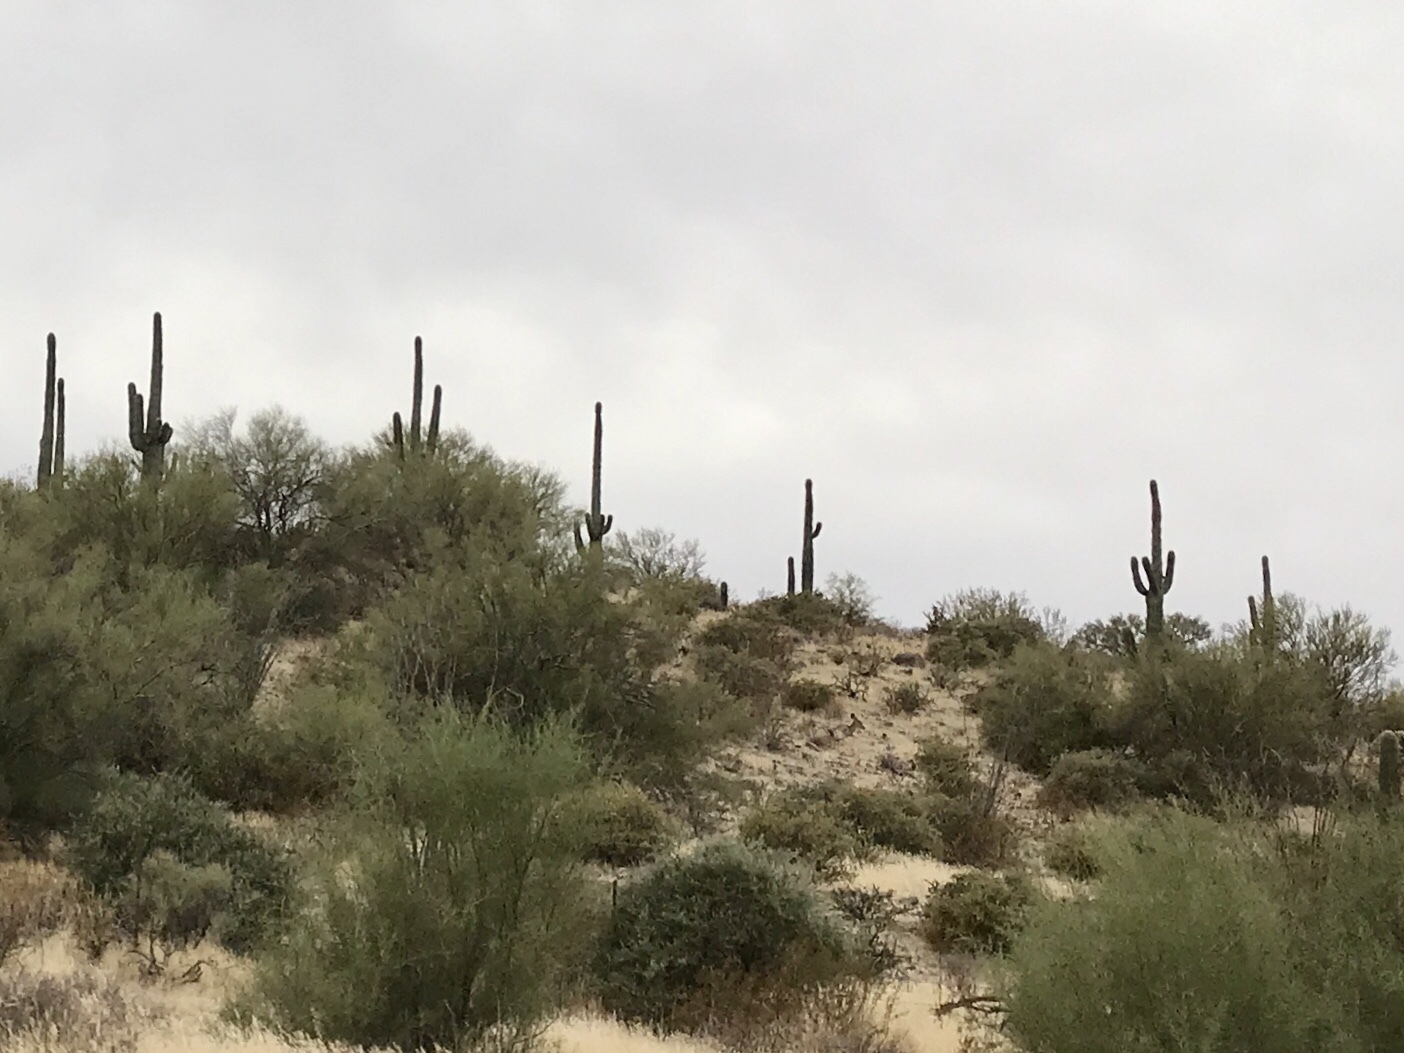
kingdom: Plantae
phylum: Tracheophyta
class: Magnoliopsida
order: Caryophyllales
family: Cactaceae
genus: Carnegiea
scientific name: Carnegiea gigantea
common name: Saguaro
